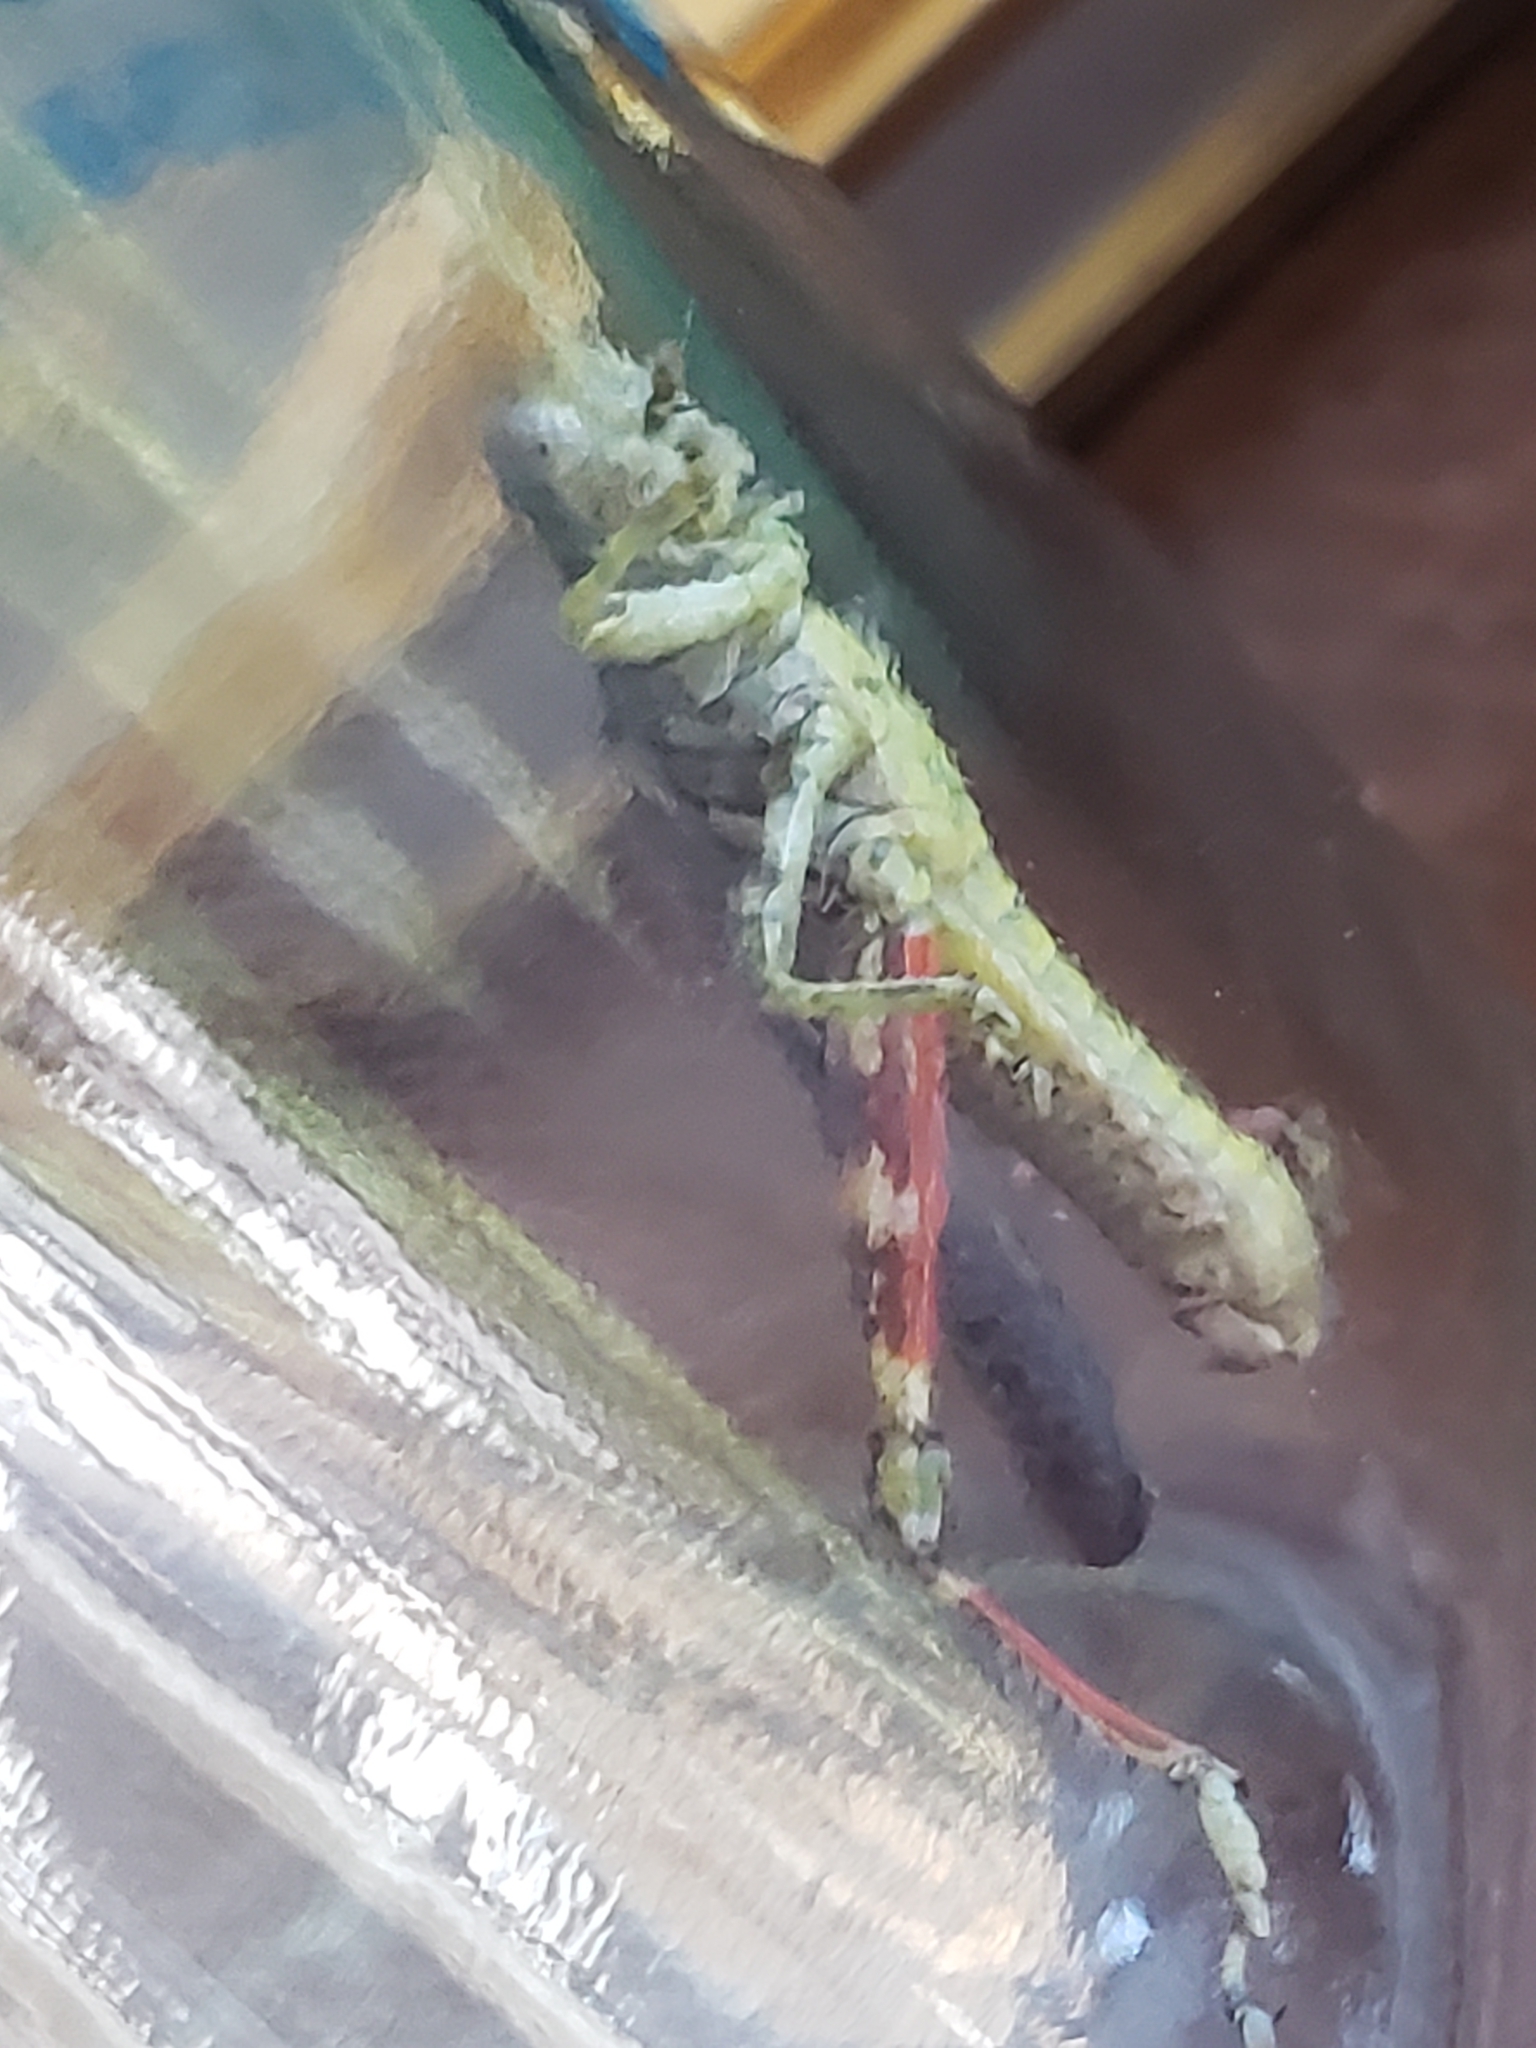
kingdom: Animalia
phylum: Arthropoda
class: Insecta
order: Orthoptera
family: Acrididae
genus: Melanoplus
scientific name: Melanoplus punctulatus
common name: Pine-tree spur-throat grasshopper
